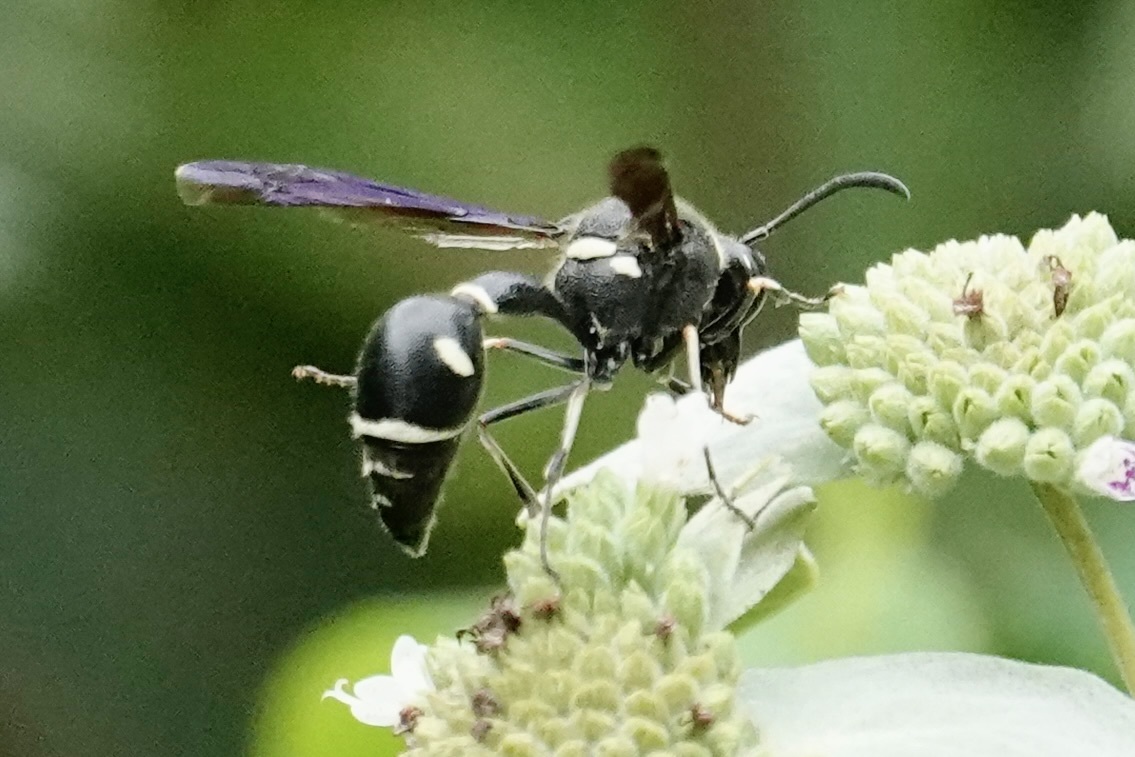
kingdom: Animalia
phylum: Arthropoda
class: Insecta
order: Hymenoptera
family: Vespidae
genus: Eumenes
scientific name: Eumenes fraternus
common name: Fraternal potter wasp
